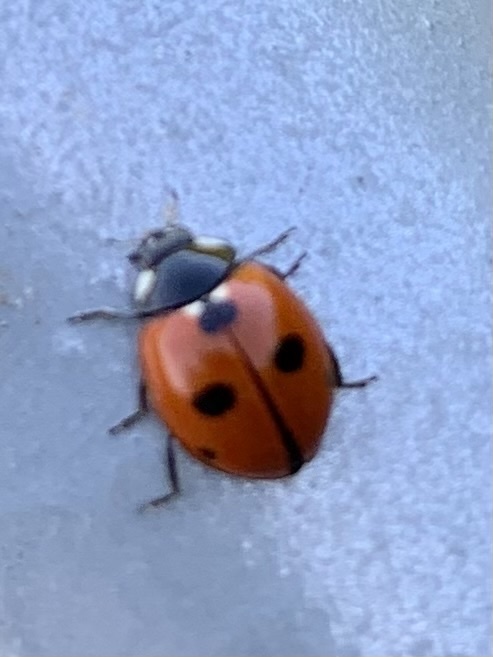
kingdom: Animalia
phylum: Arthropoda
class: Insecta
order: Coleoptera
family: Coccinellidae
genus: Coccinella
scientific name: Coccinella quinquepunctata
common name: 5-spot ladybird
